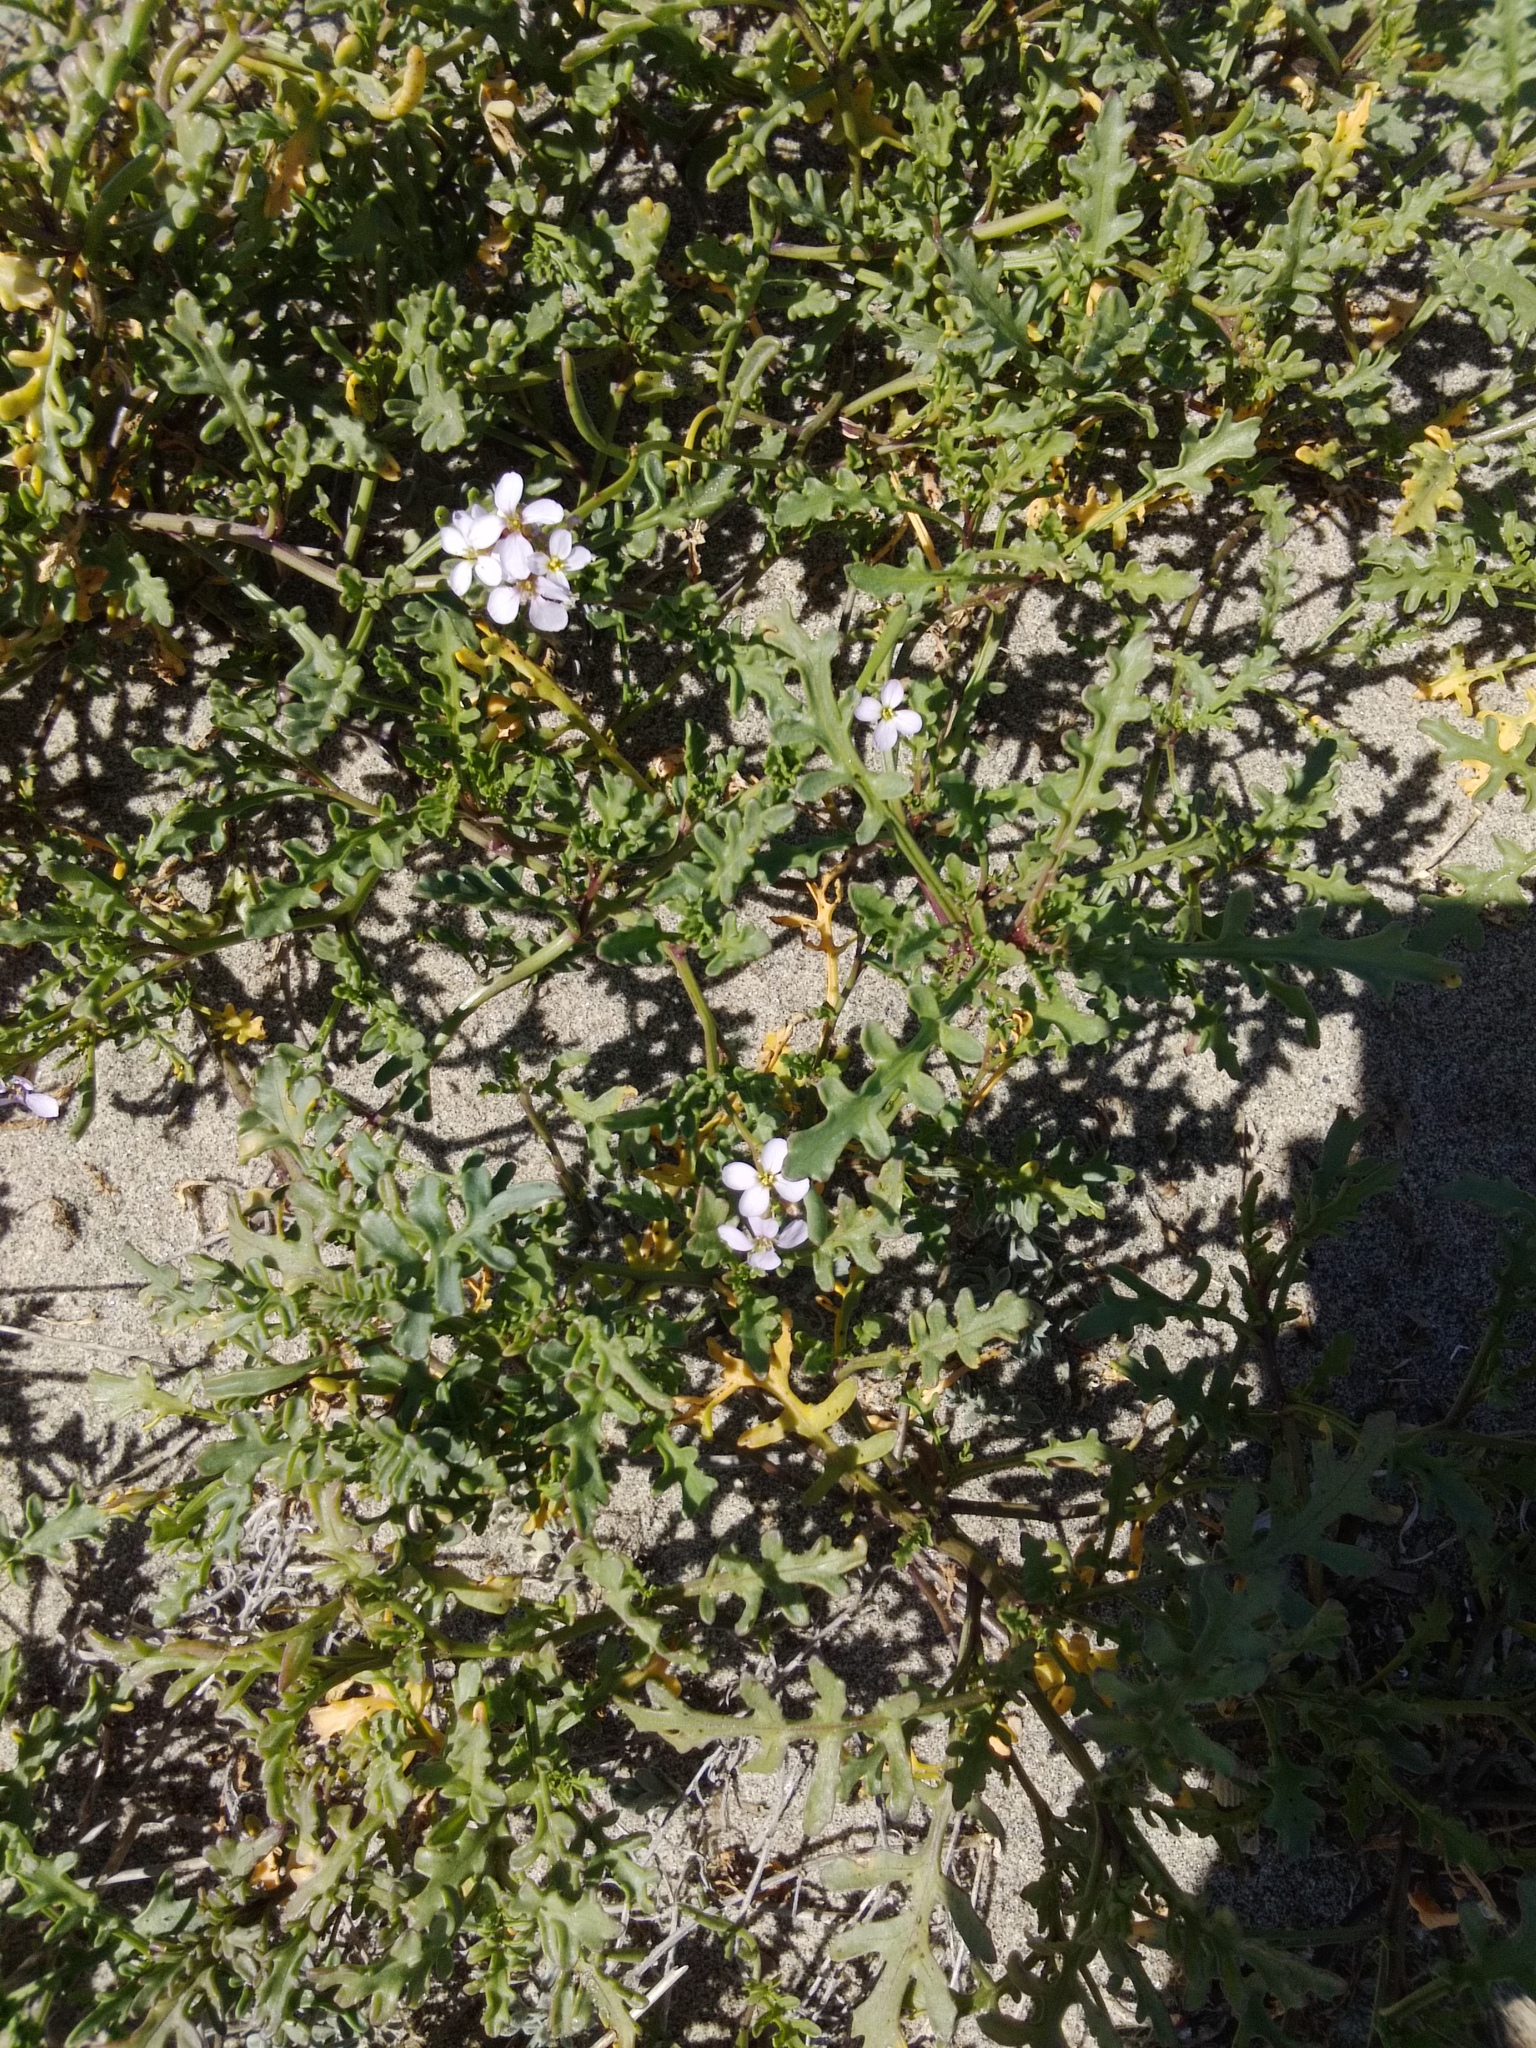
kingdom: Plantae
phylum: Tracheophyta
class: Magnoliopsida
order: Brassicales
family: Brassicaceae
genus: Cakile
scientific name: Cakile maritima
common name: Sea rocket
